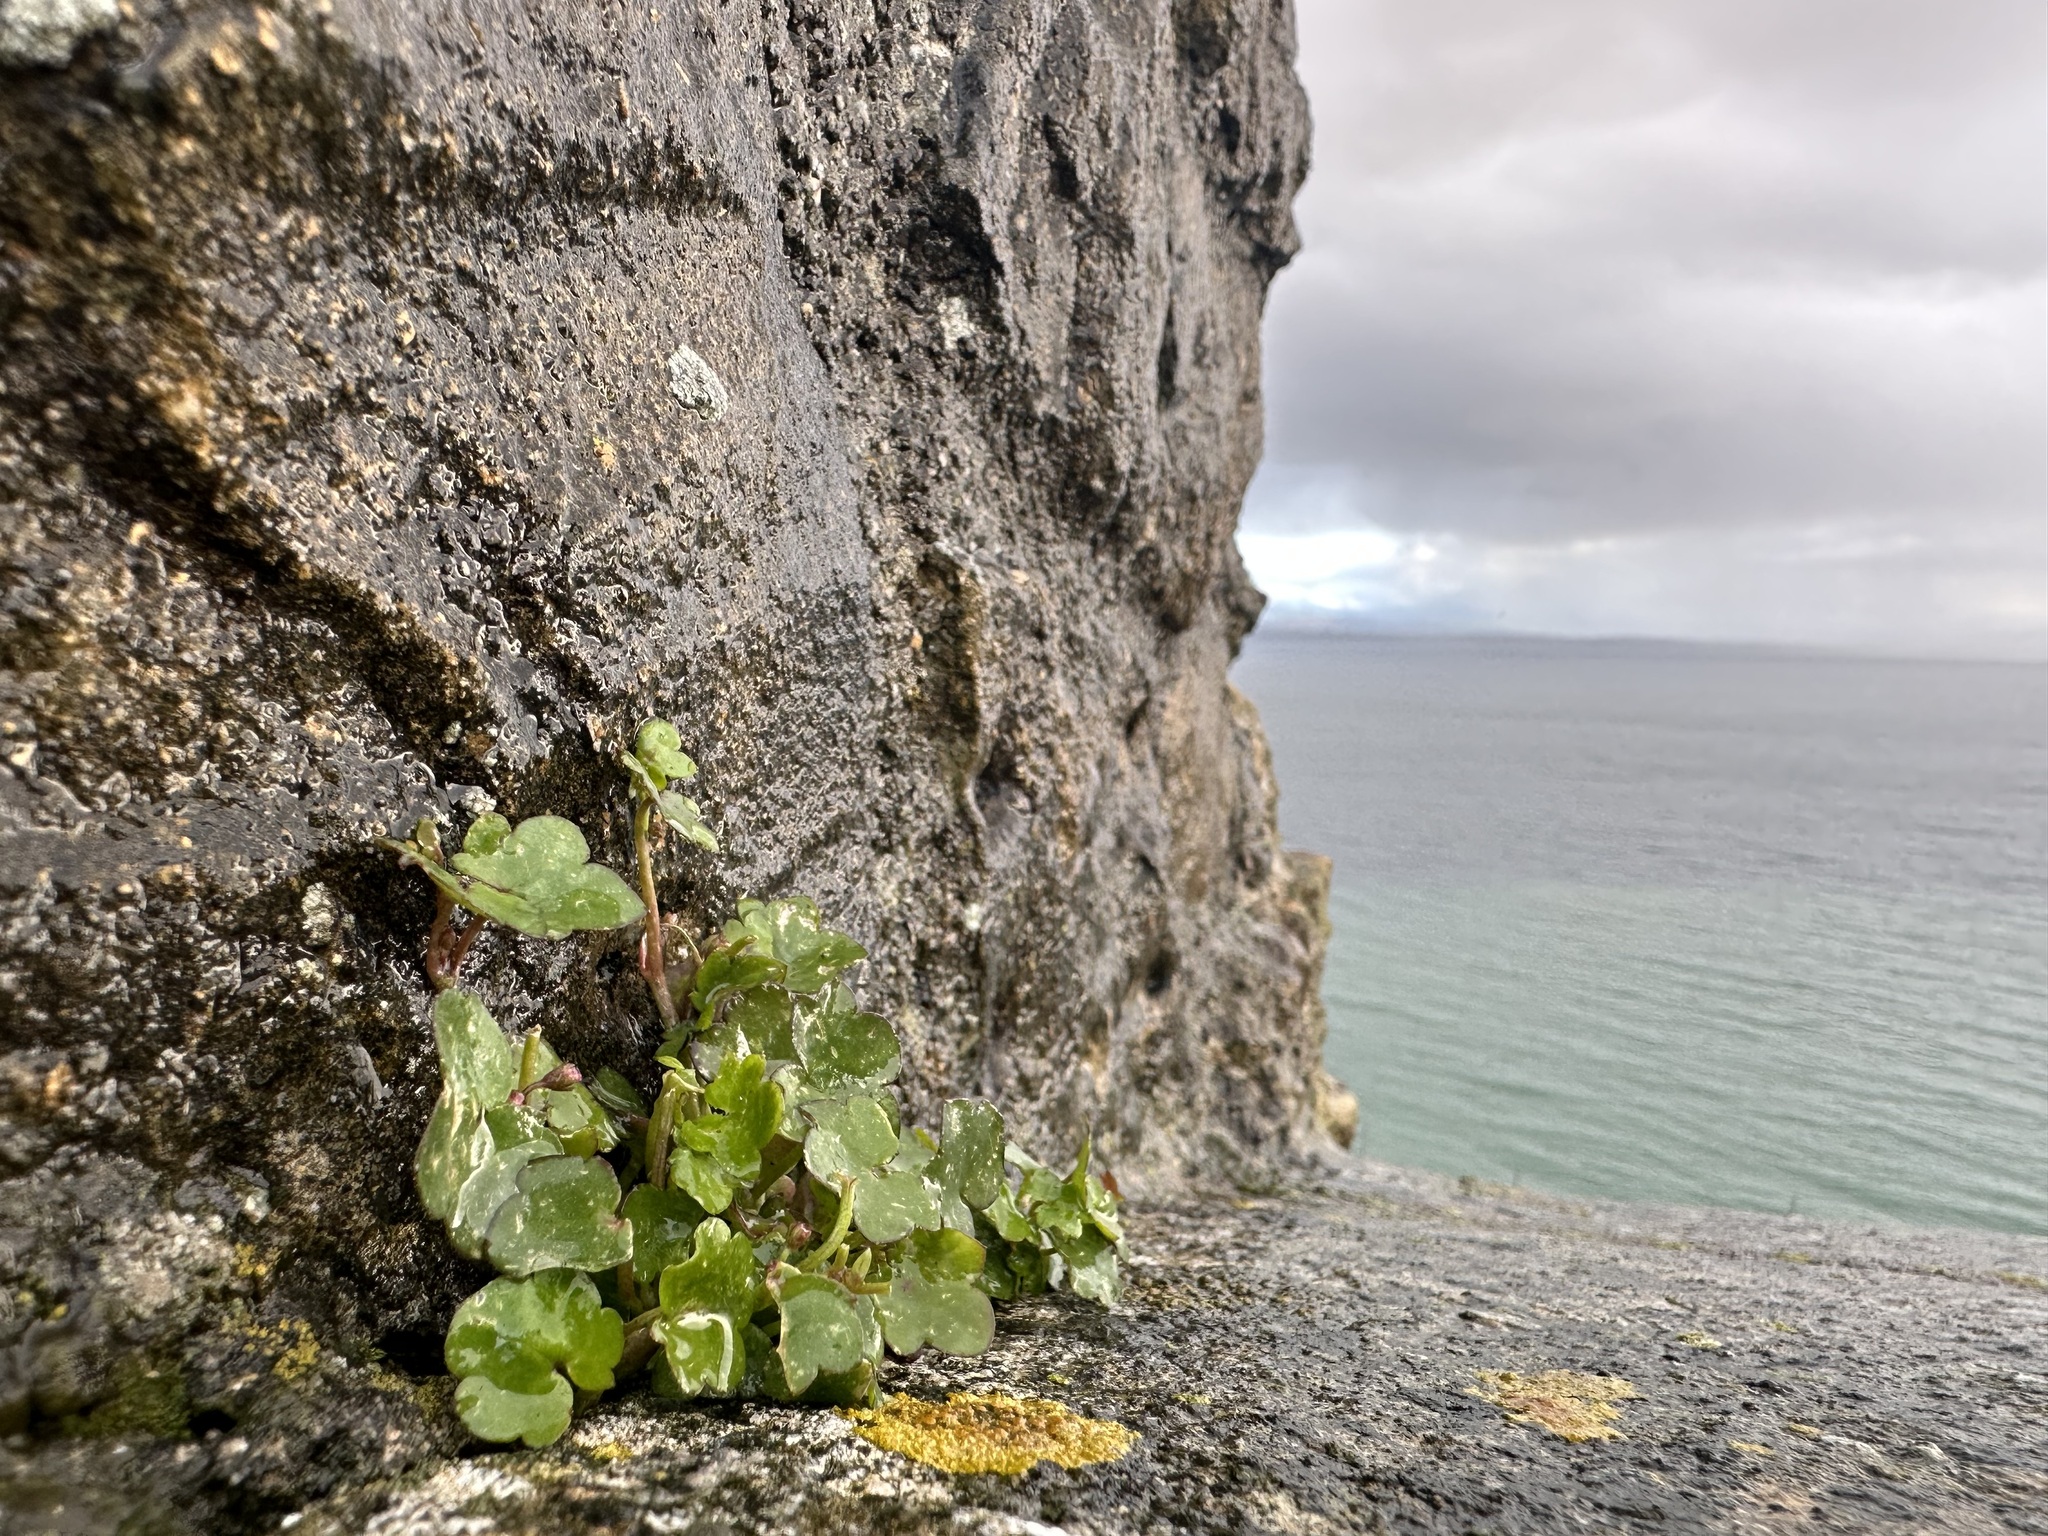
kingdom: Plantae
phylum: Tracheophyta
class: Magnoliopsida
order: Lamiales
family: Plantaginaceae
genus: Cymbalaria
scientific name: Cymbalaria muralis
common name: Ivy-leaved toadflax
